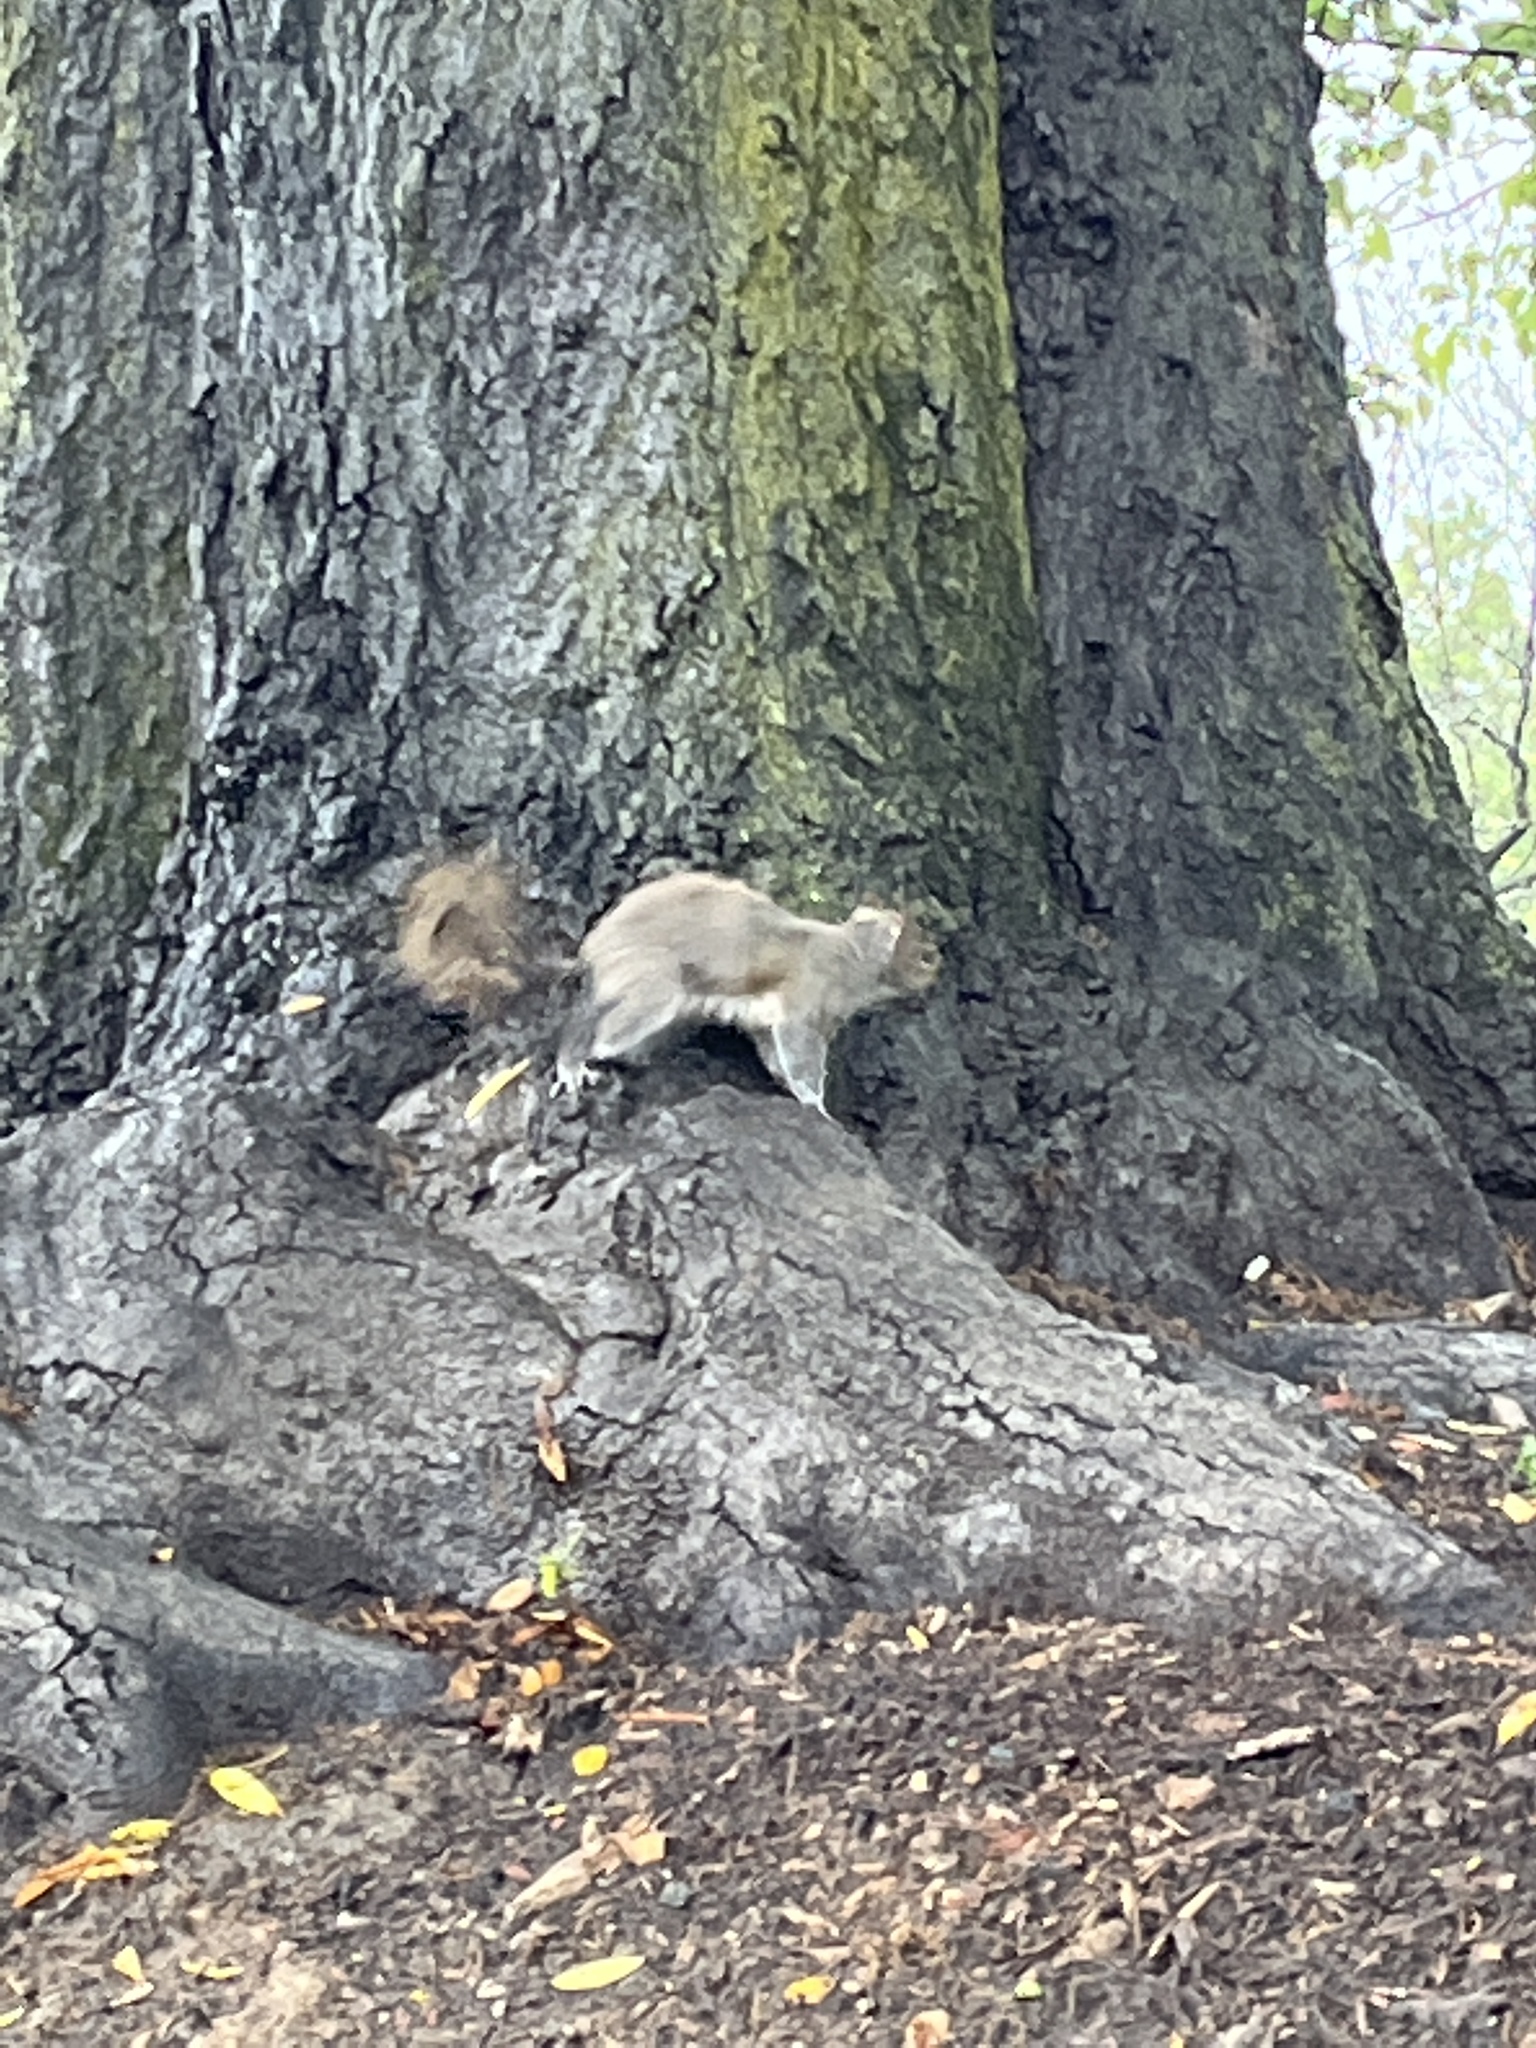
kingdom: Animalia
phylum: Chordata
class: Mammalia
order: Rodentia
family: Sciuridae
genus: Sciurus
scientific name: Sciurus carolinensis
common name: Eastern gray squirrel
